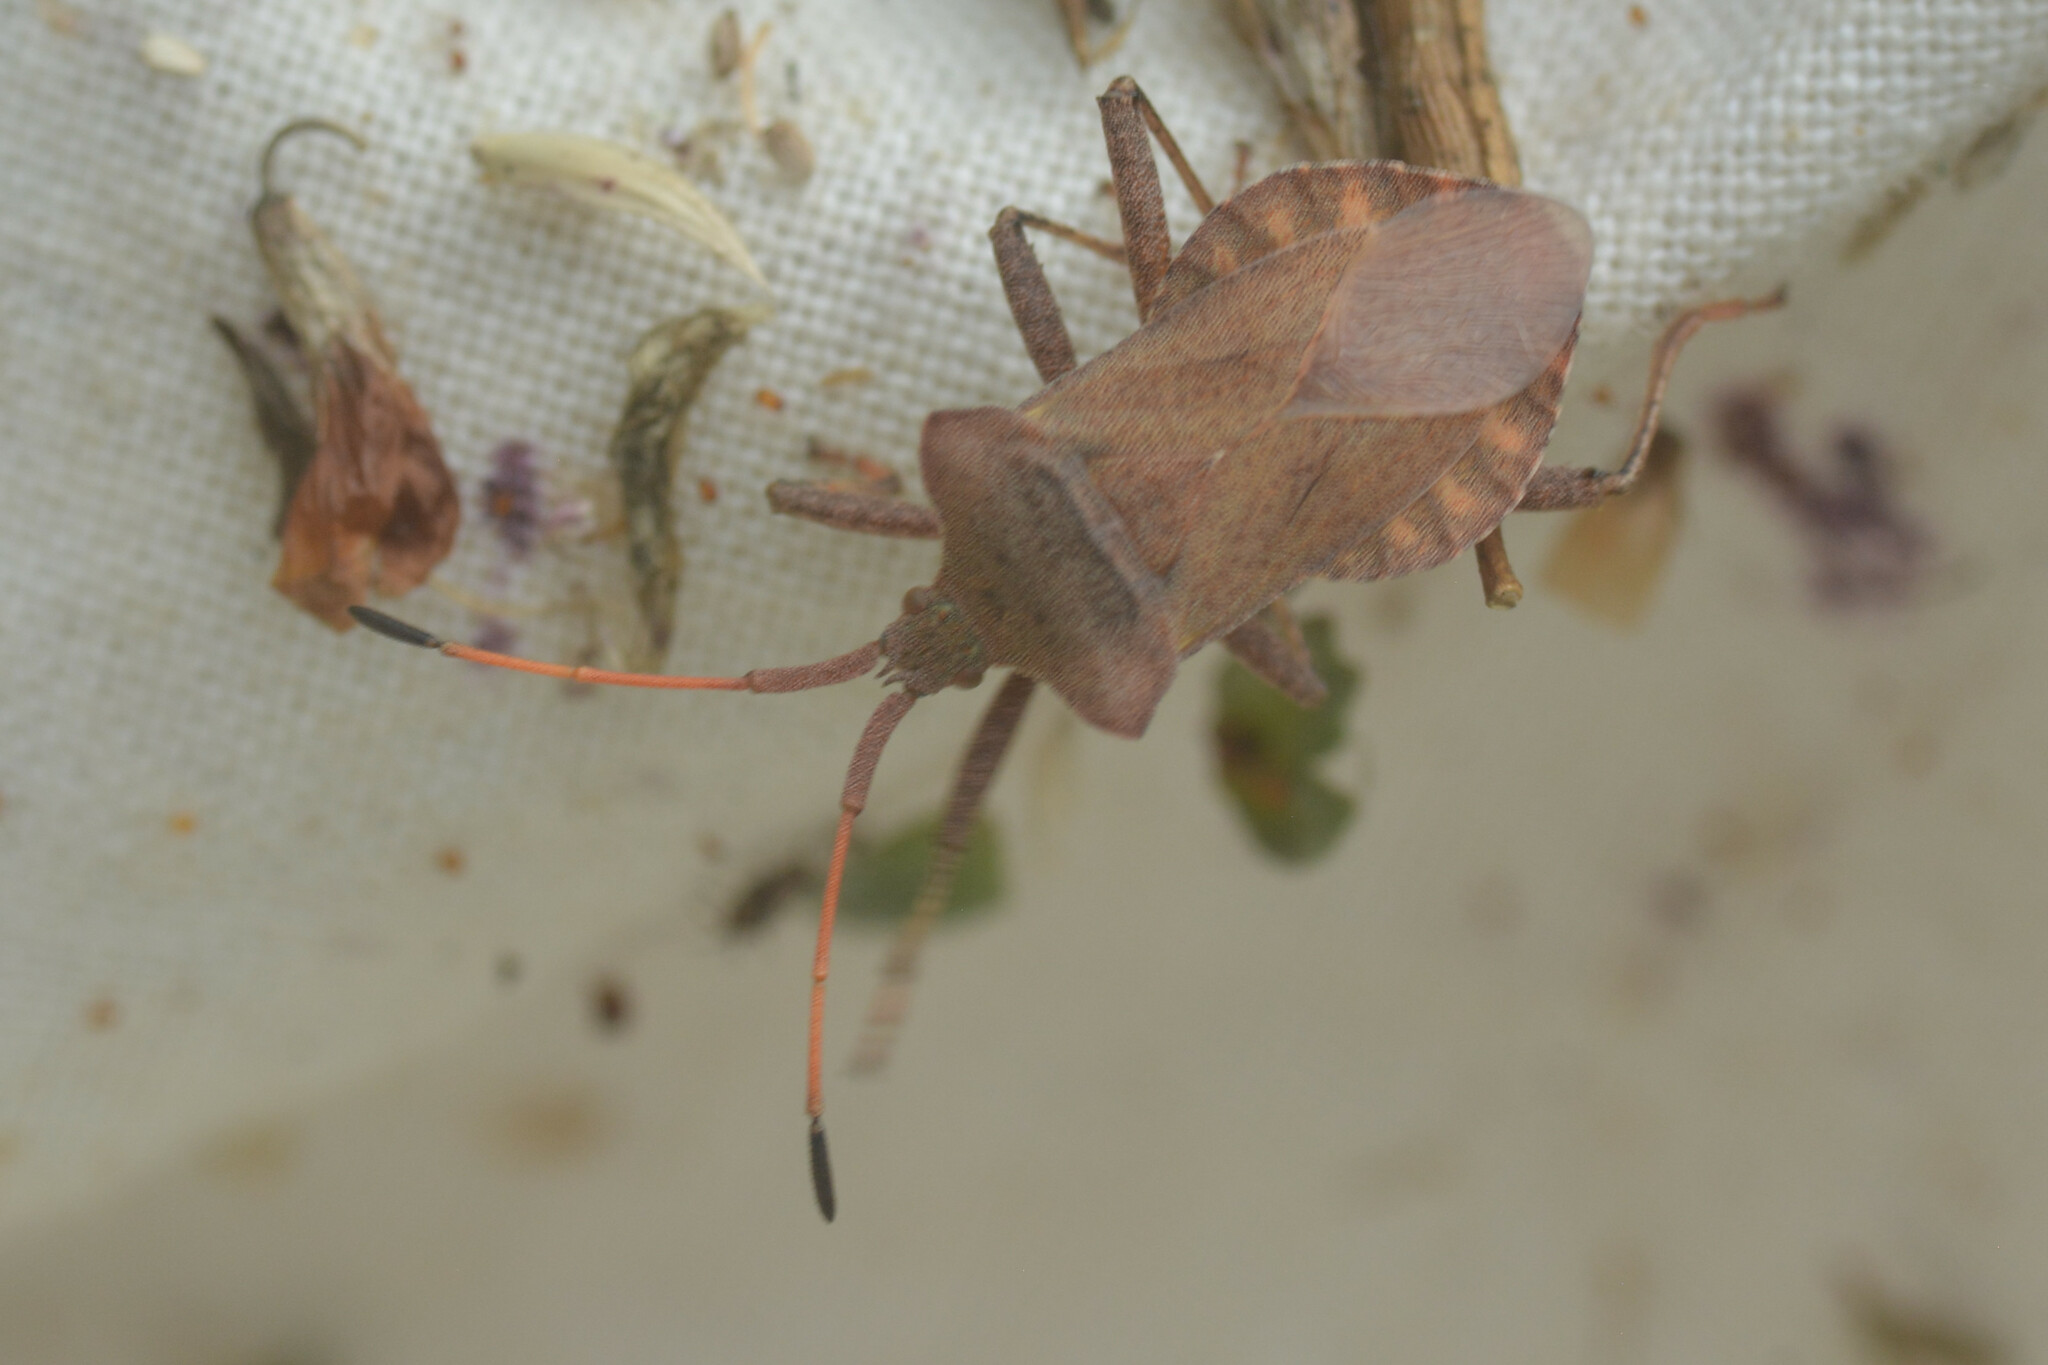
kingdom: Animalia
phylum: Arthropoda
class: Insecta
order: Hemiptera
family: Coreidae
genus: Coreus
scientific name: Coreus marginatus
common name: Dock bug
